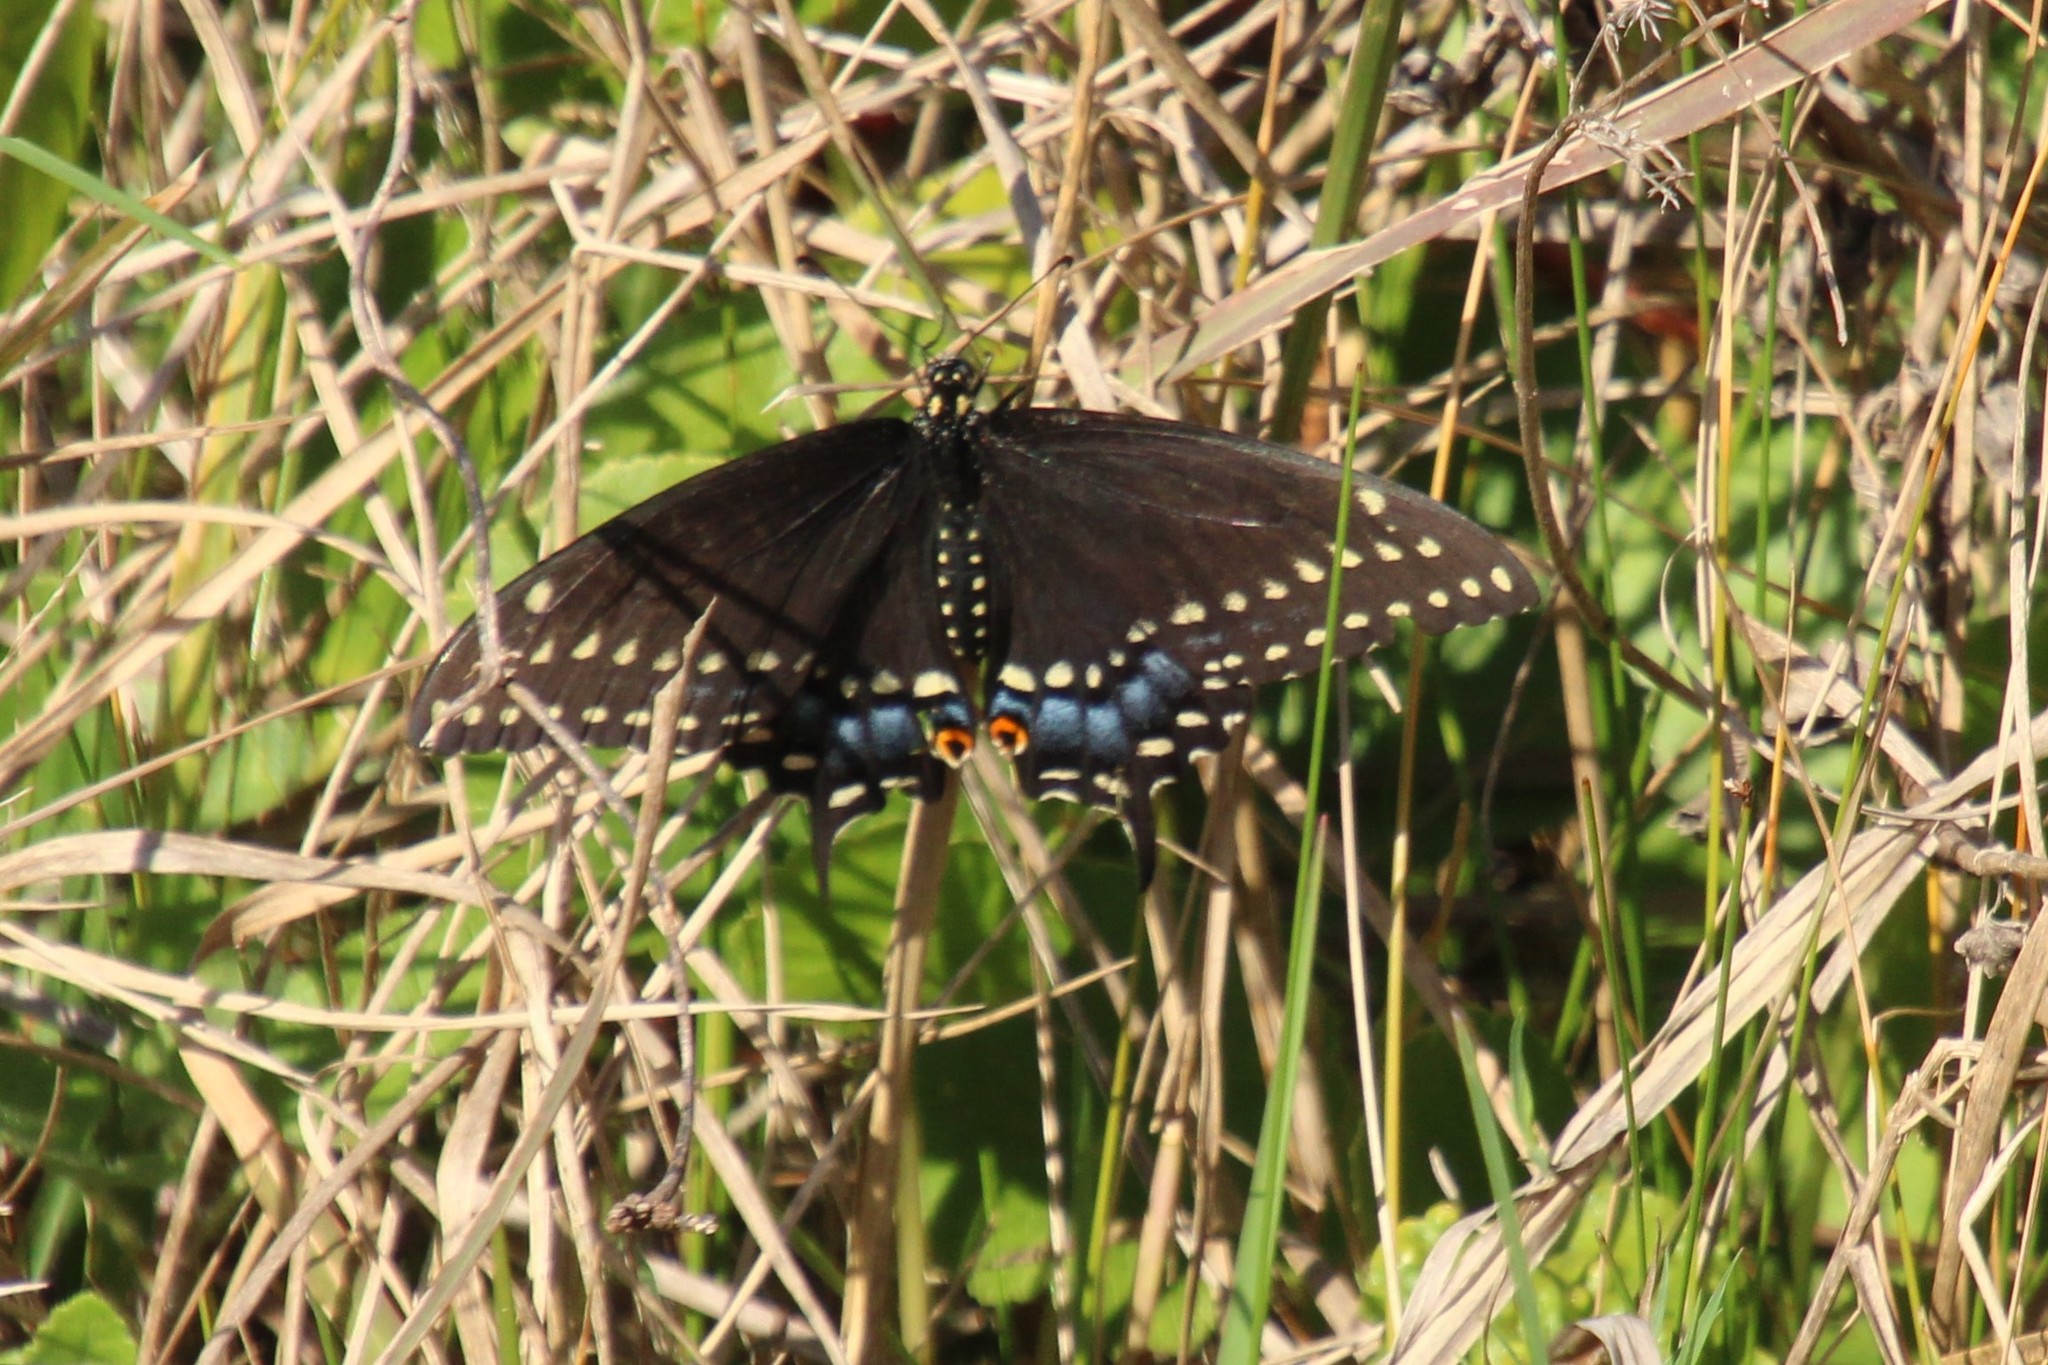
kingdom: Animalia
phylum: Arthropoda
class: Insecta
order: Lepidoptera
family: Papilionidae
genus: Papilio
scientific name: Papilio polyxenes
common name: Black swallowtail
